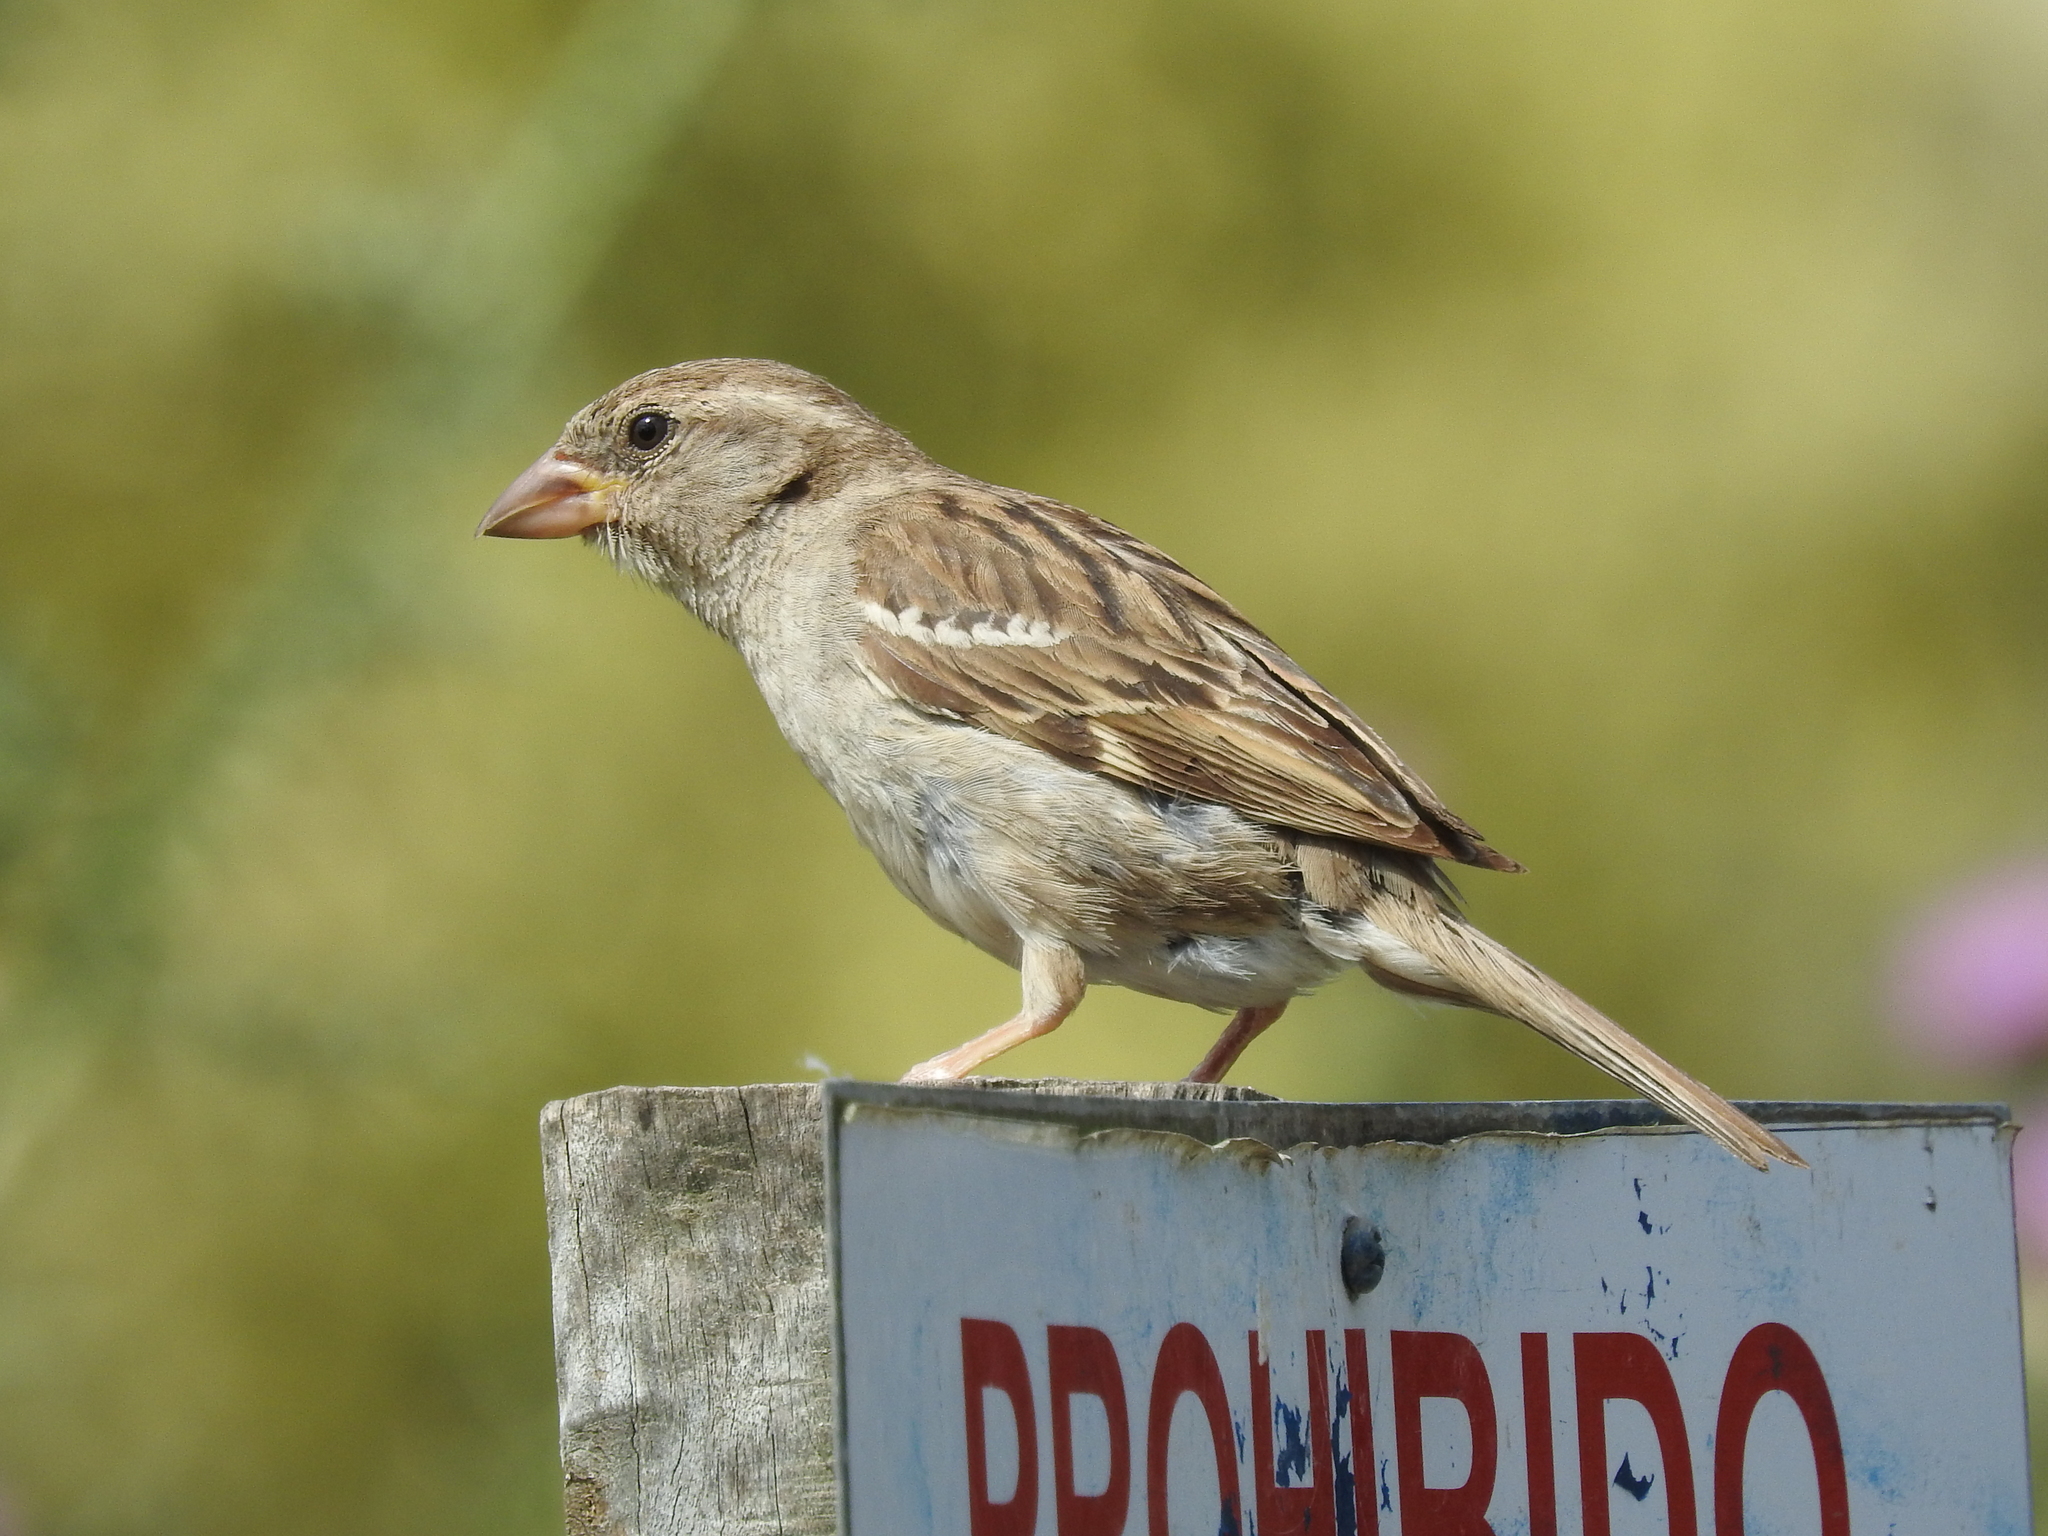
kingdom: Animalia
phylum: Chordata
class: Aves
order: Passeriformes
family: Passeridae
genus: Passer
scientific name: Passer domesticus
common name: House sparrow
